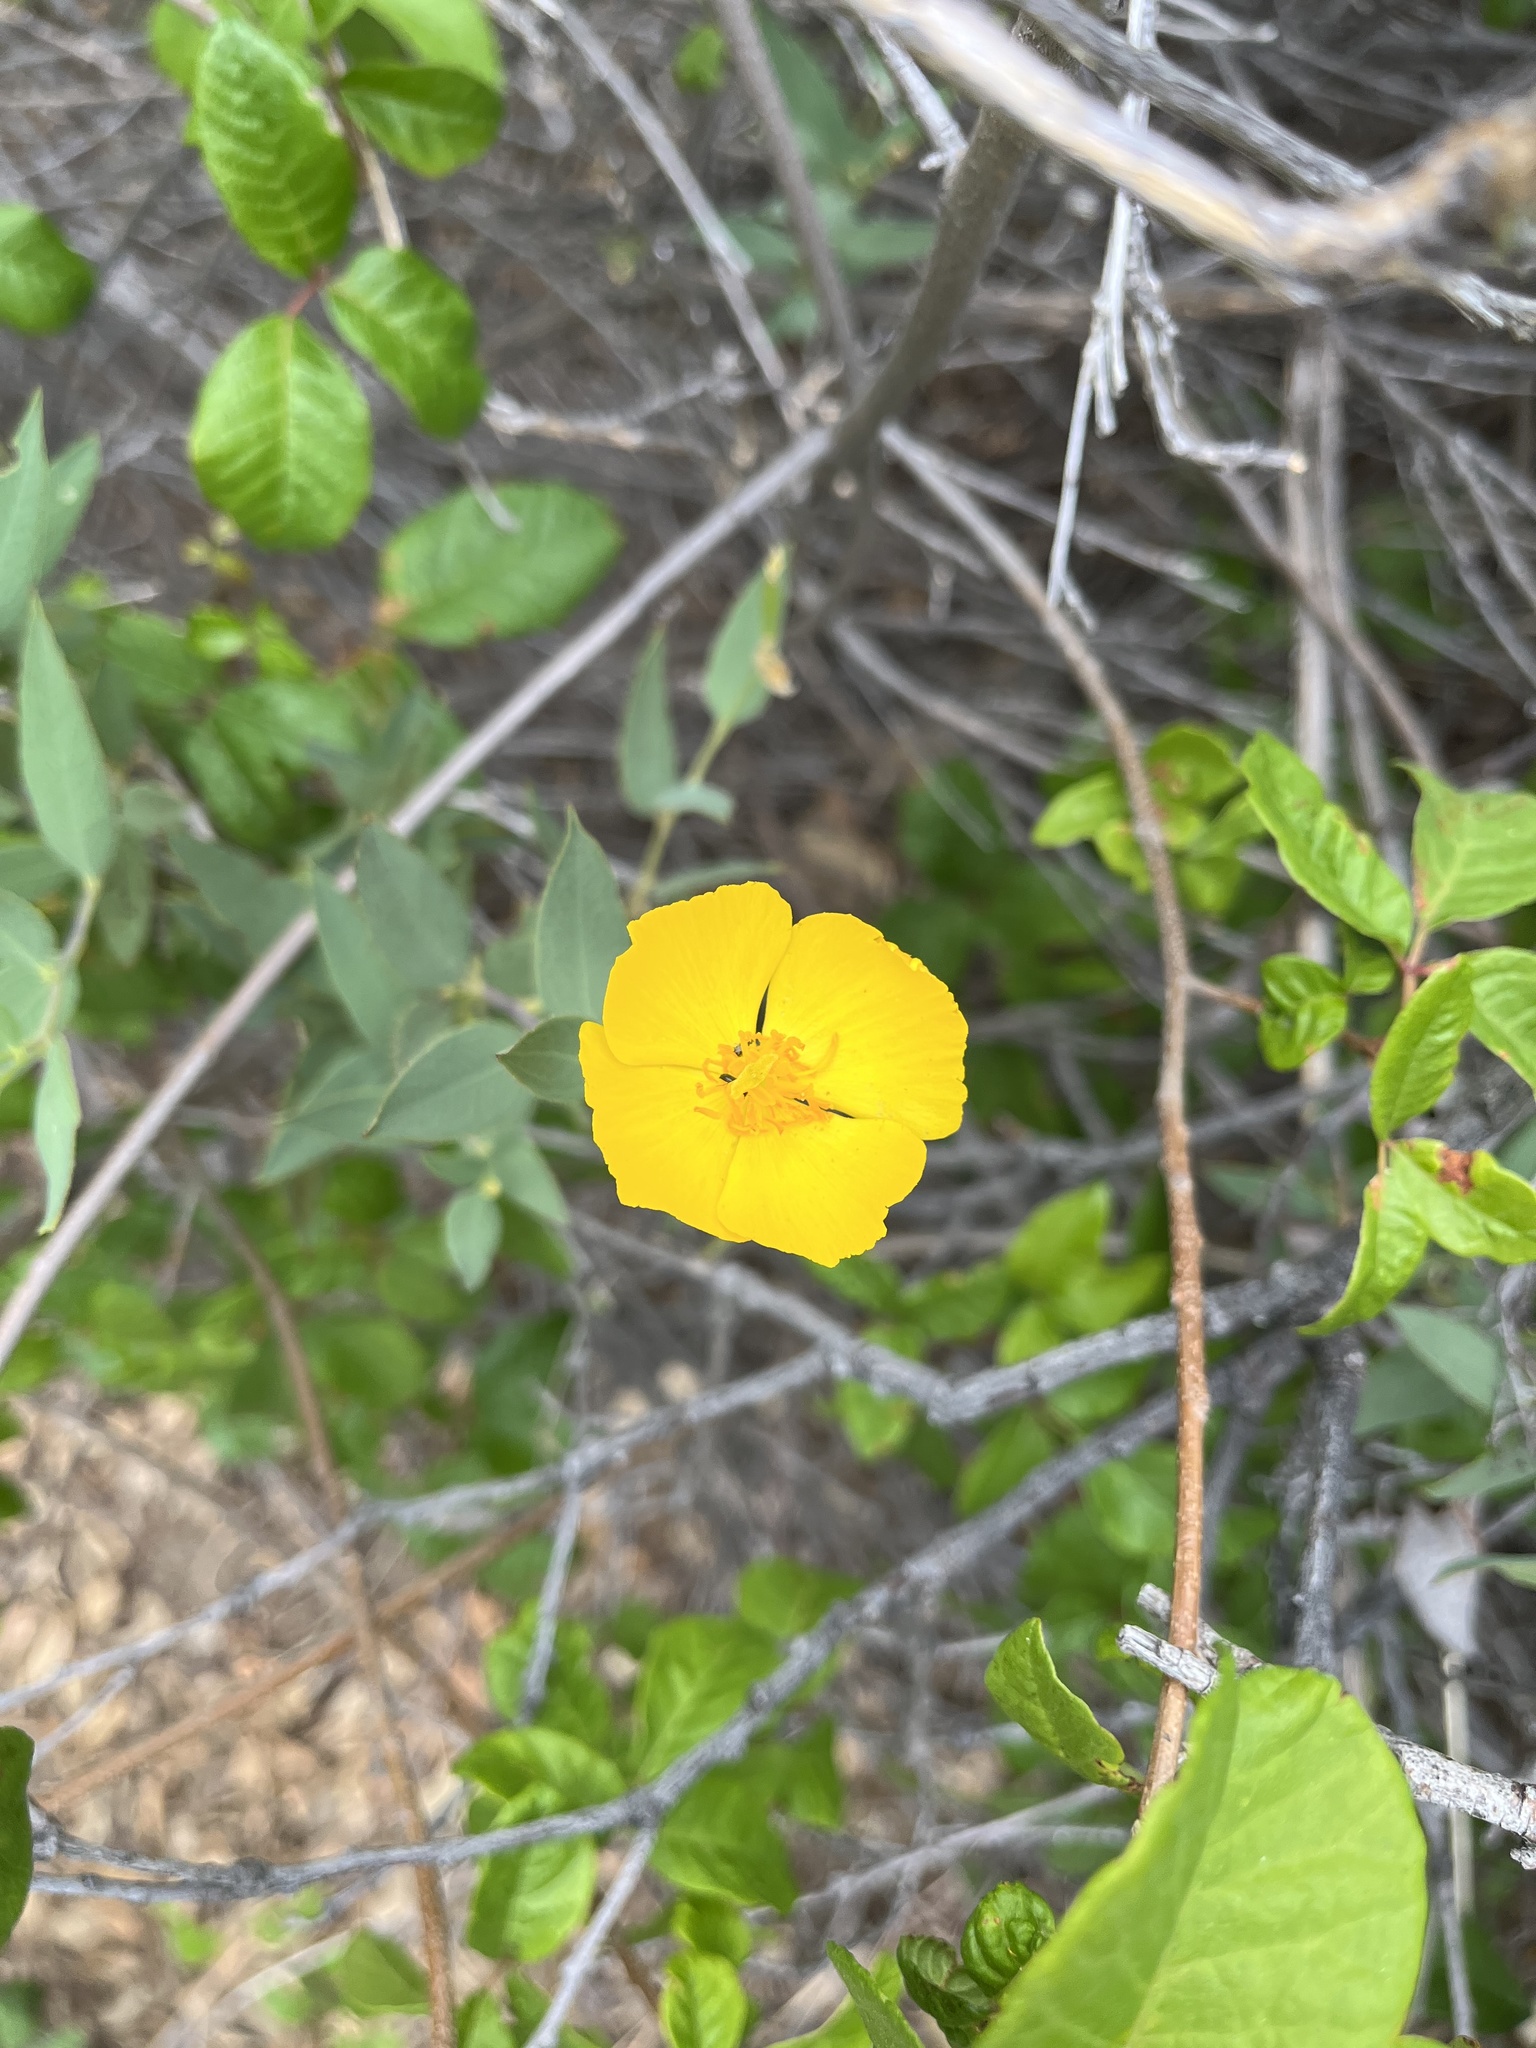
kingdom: Plantae
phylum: Tracheophyta
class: Magnoliopsida
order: Ranunculales
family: Papaveraceae
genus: Dendromecon
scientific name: Dendromecon rigida
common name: Tree poppy
